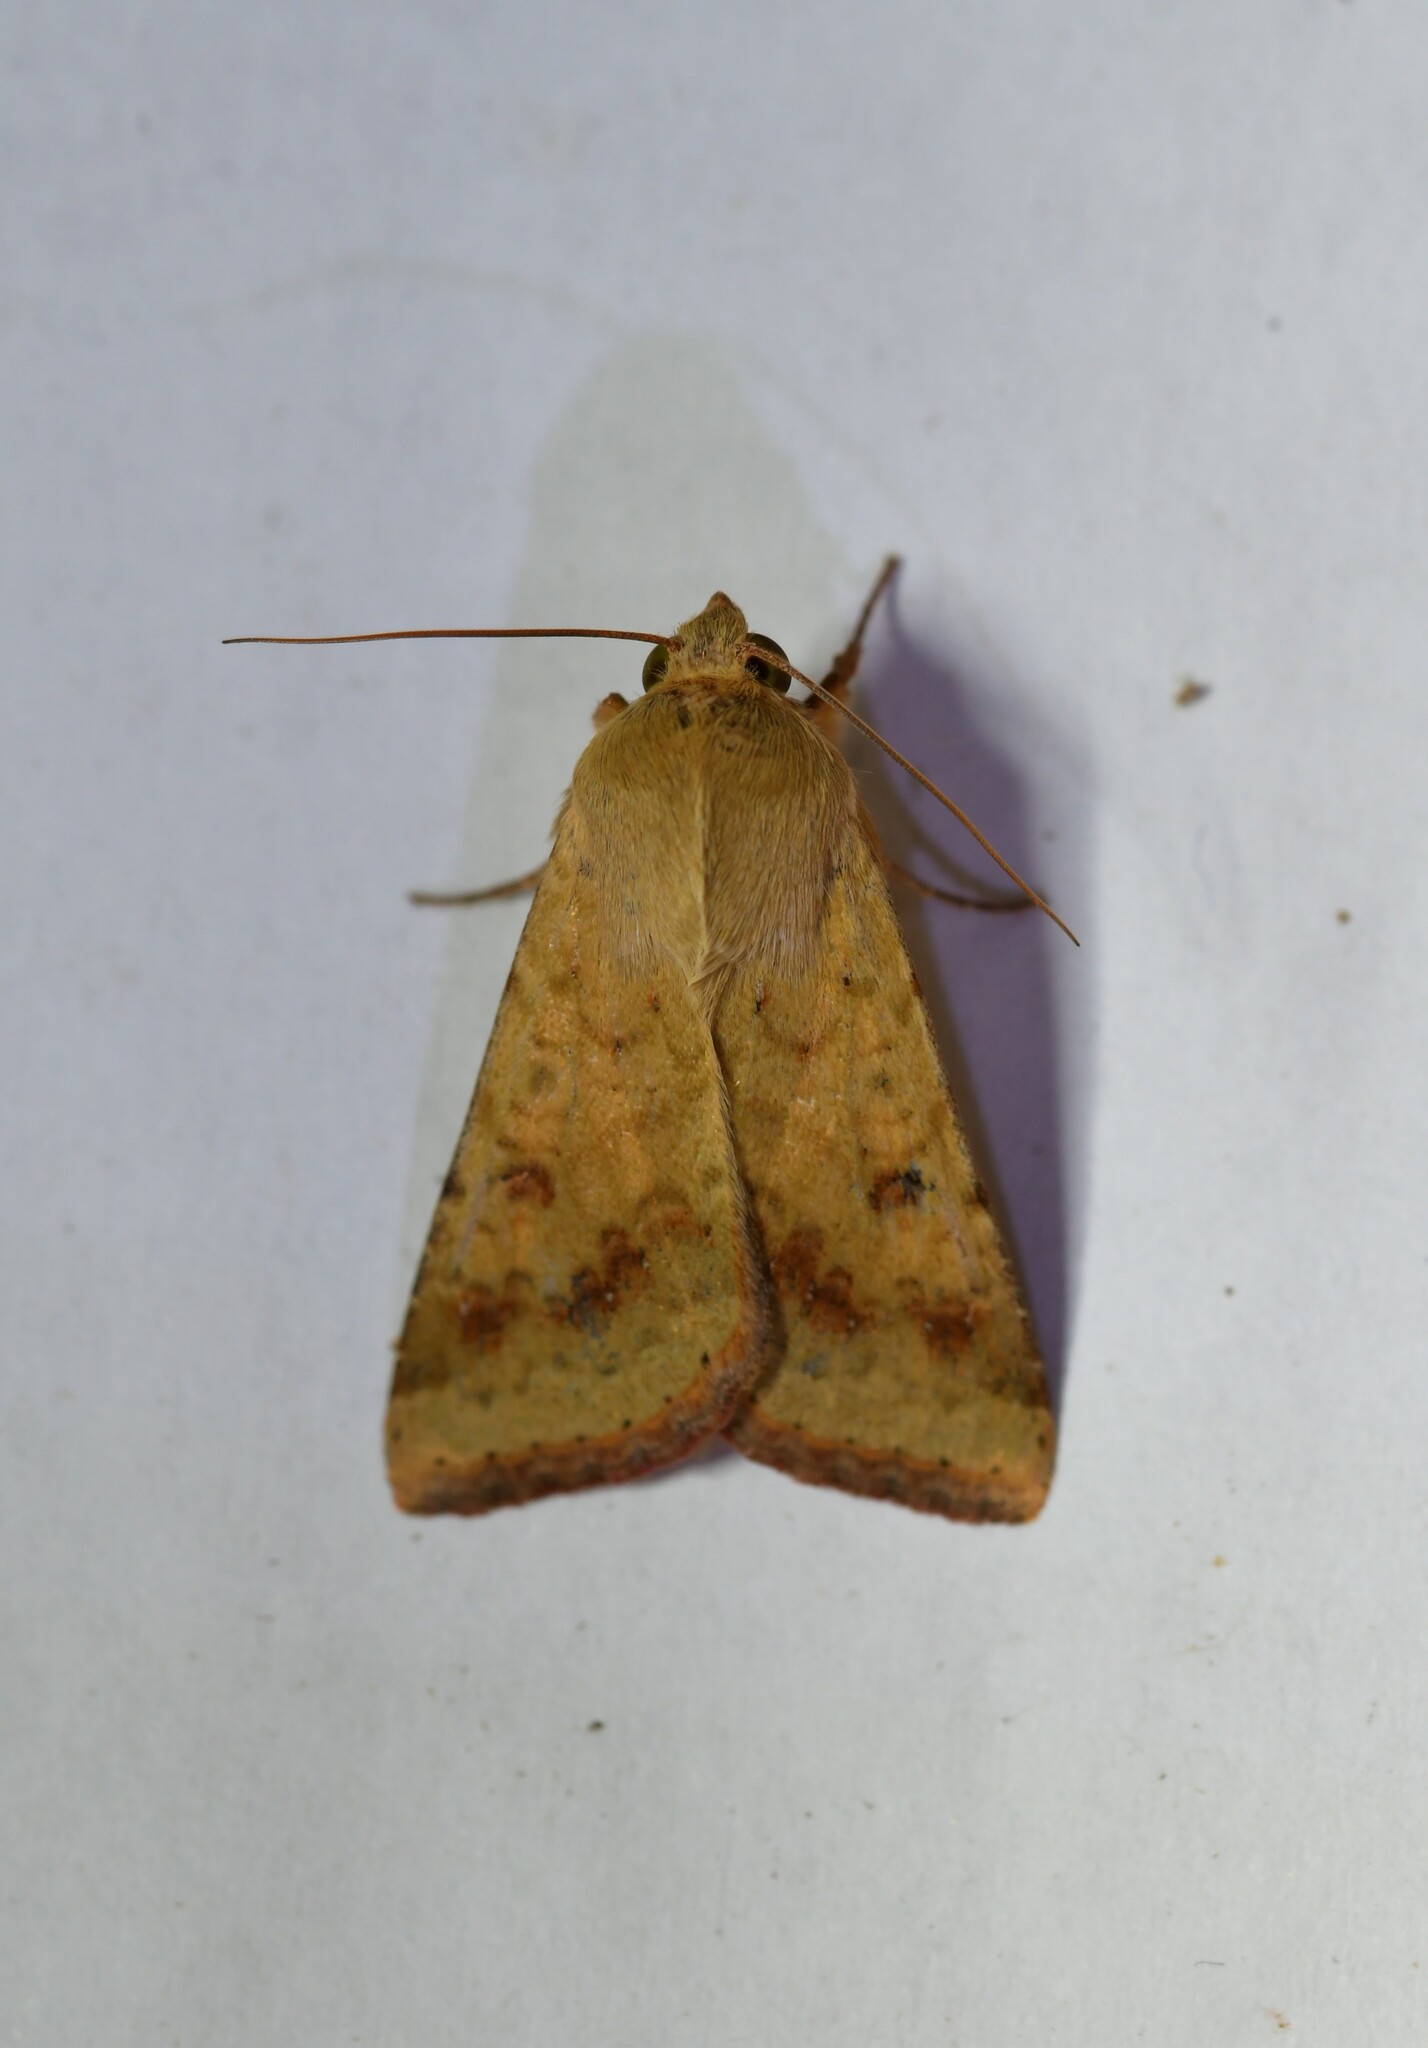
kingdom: Animalia
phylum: Arthropoda
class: Insecta
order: Lepidoptera
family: Noctuidae
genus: Helicoverpa
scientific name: Helicoverpa armigera
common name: Cotton bollworm
